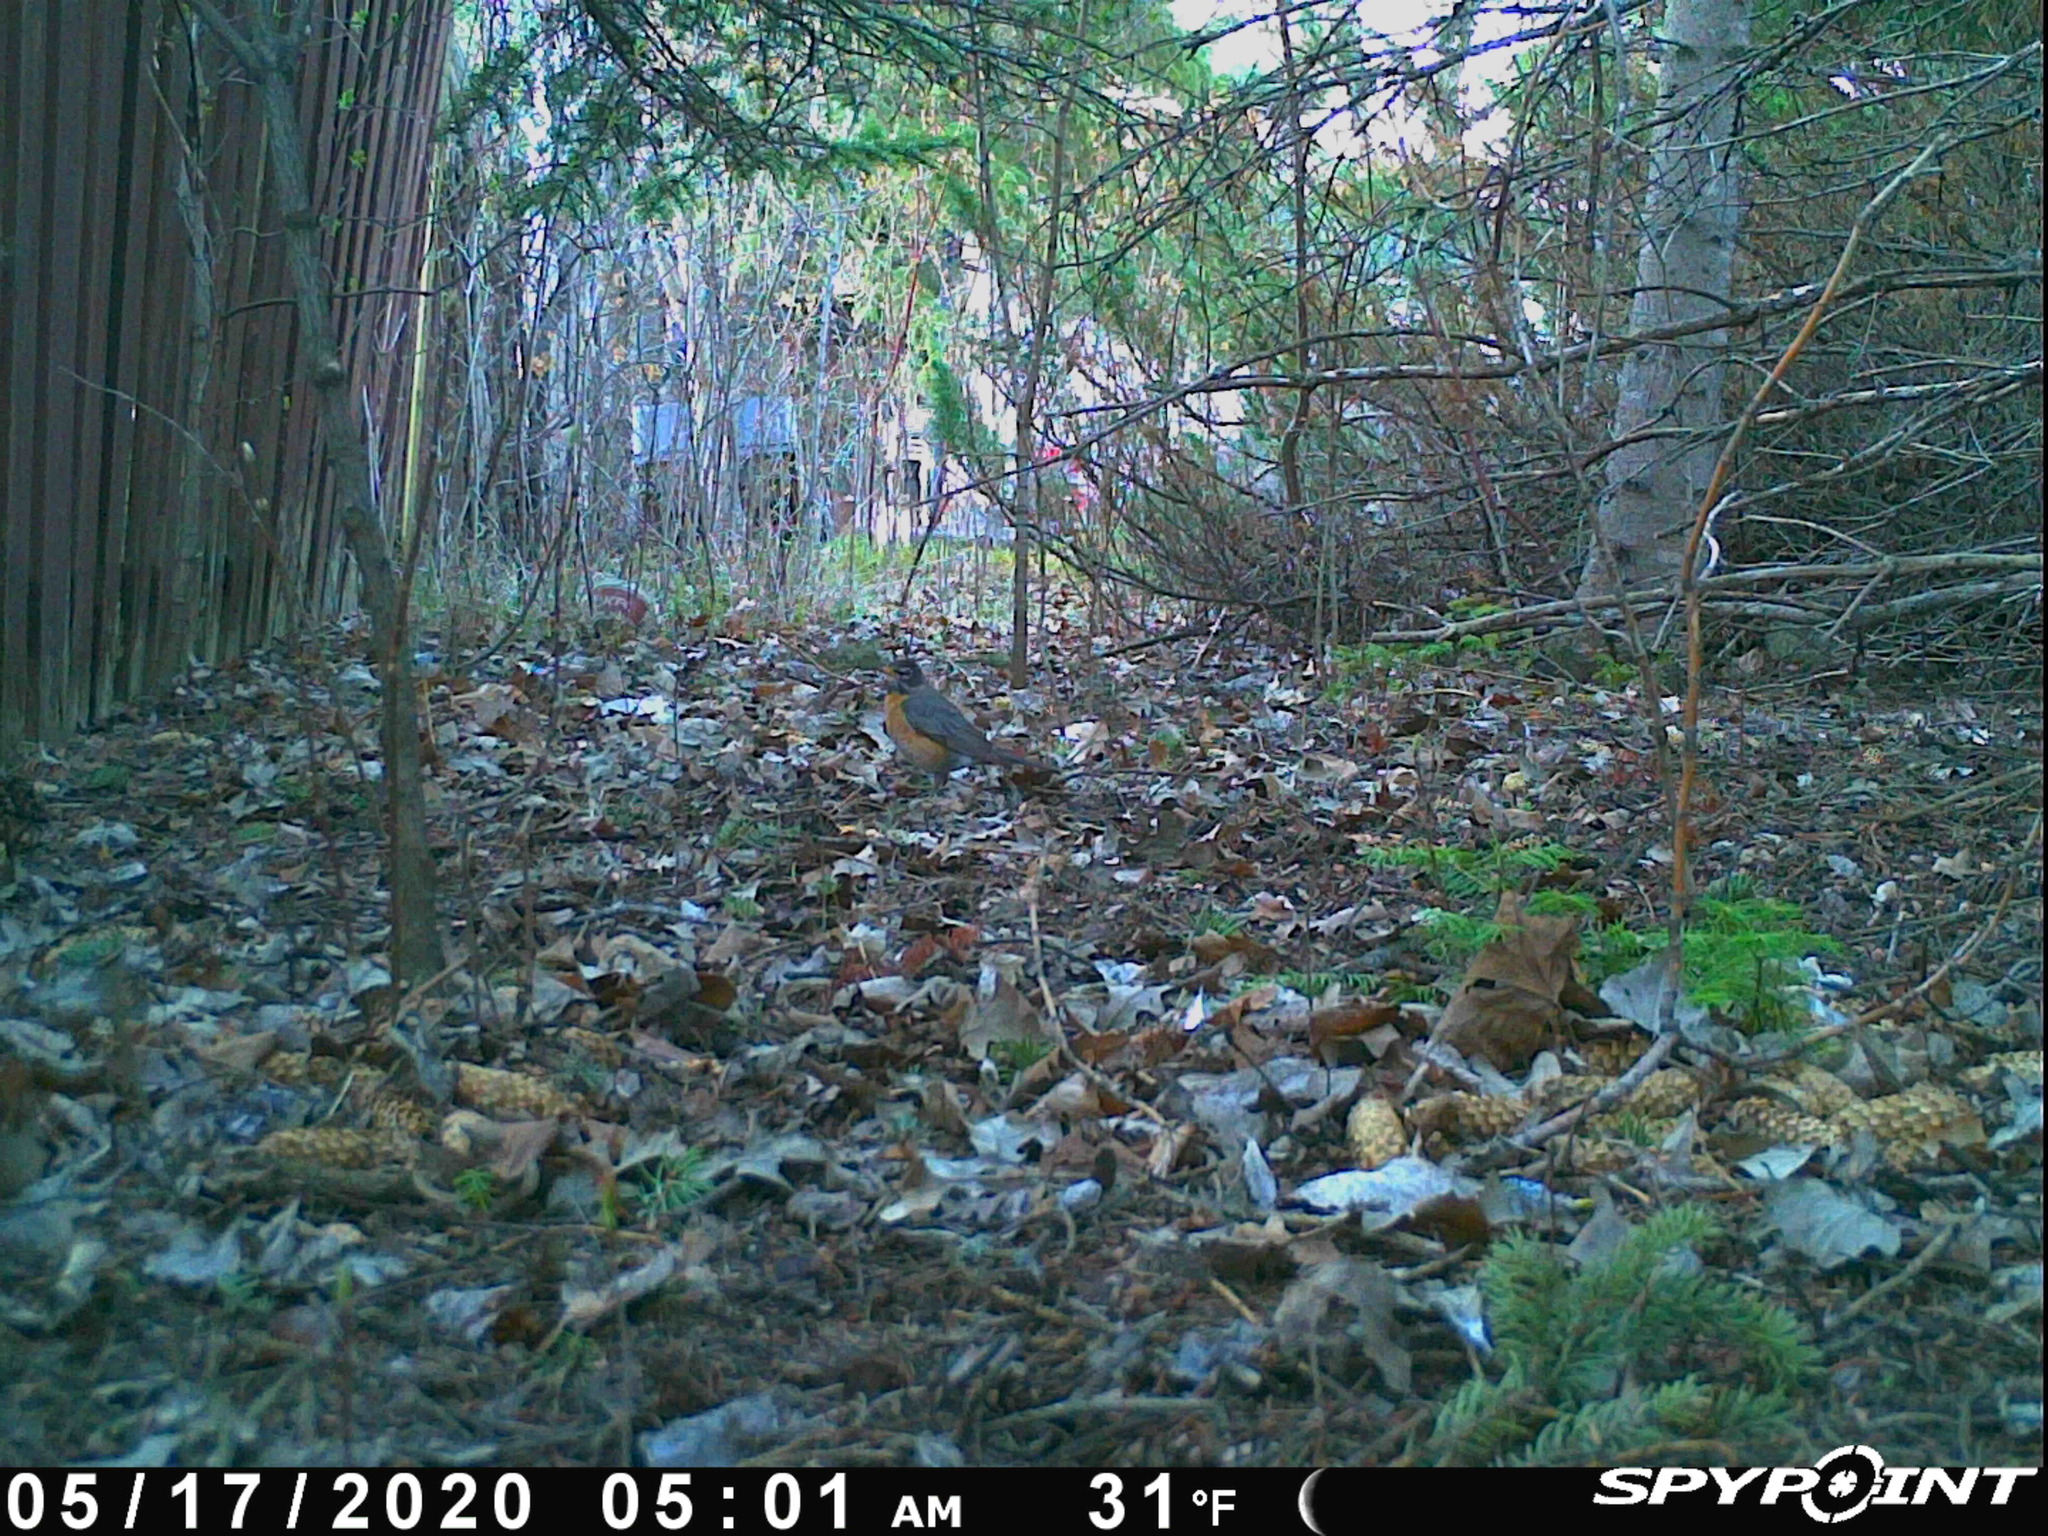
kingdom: Animalia
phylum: Chordata
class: Aves
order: Passeriformes
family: Turdidae
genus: Turdus
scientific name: Turdus migratorius
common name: American robin
